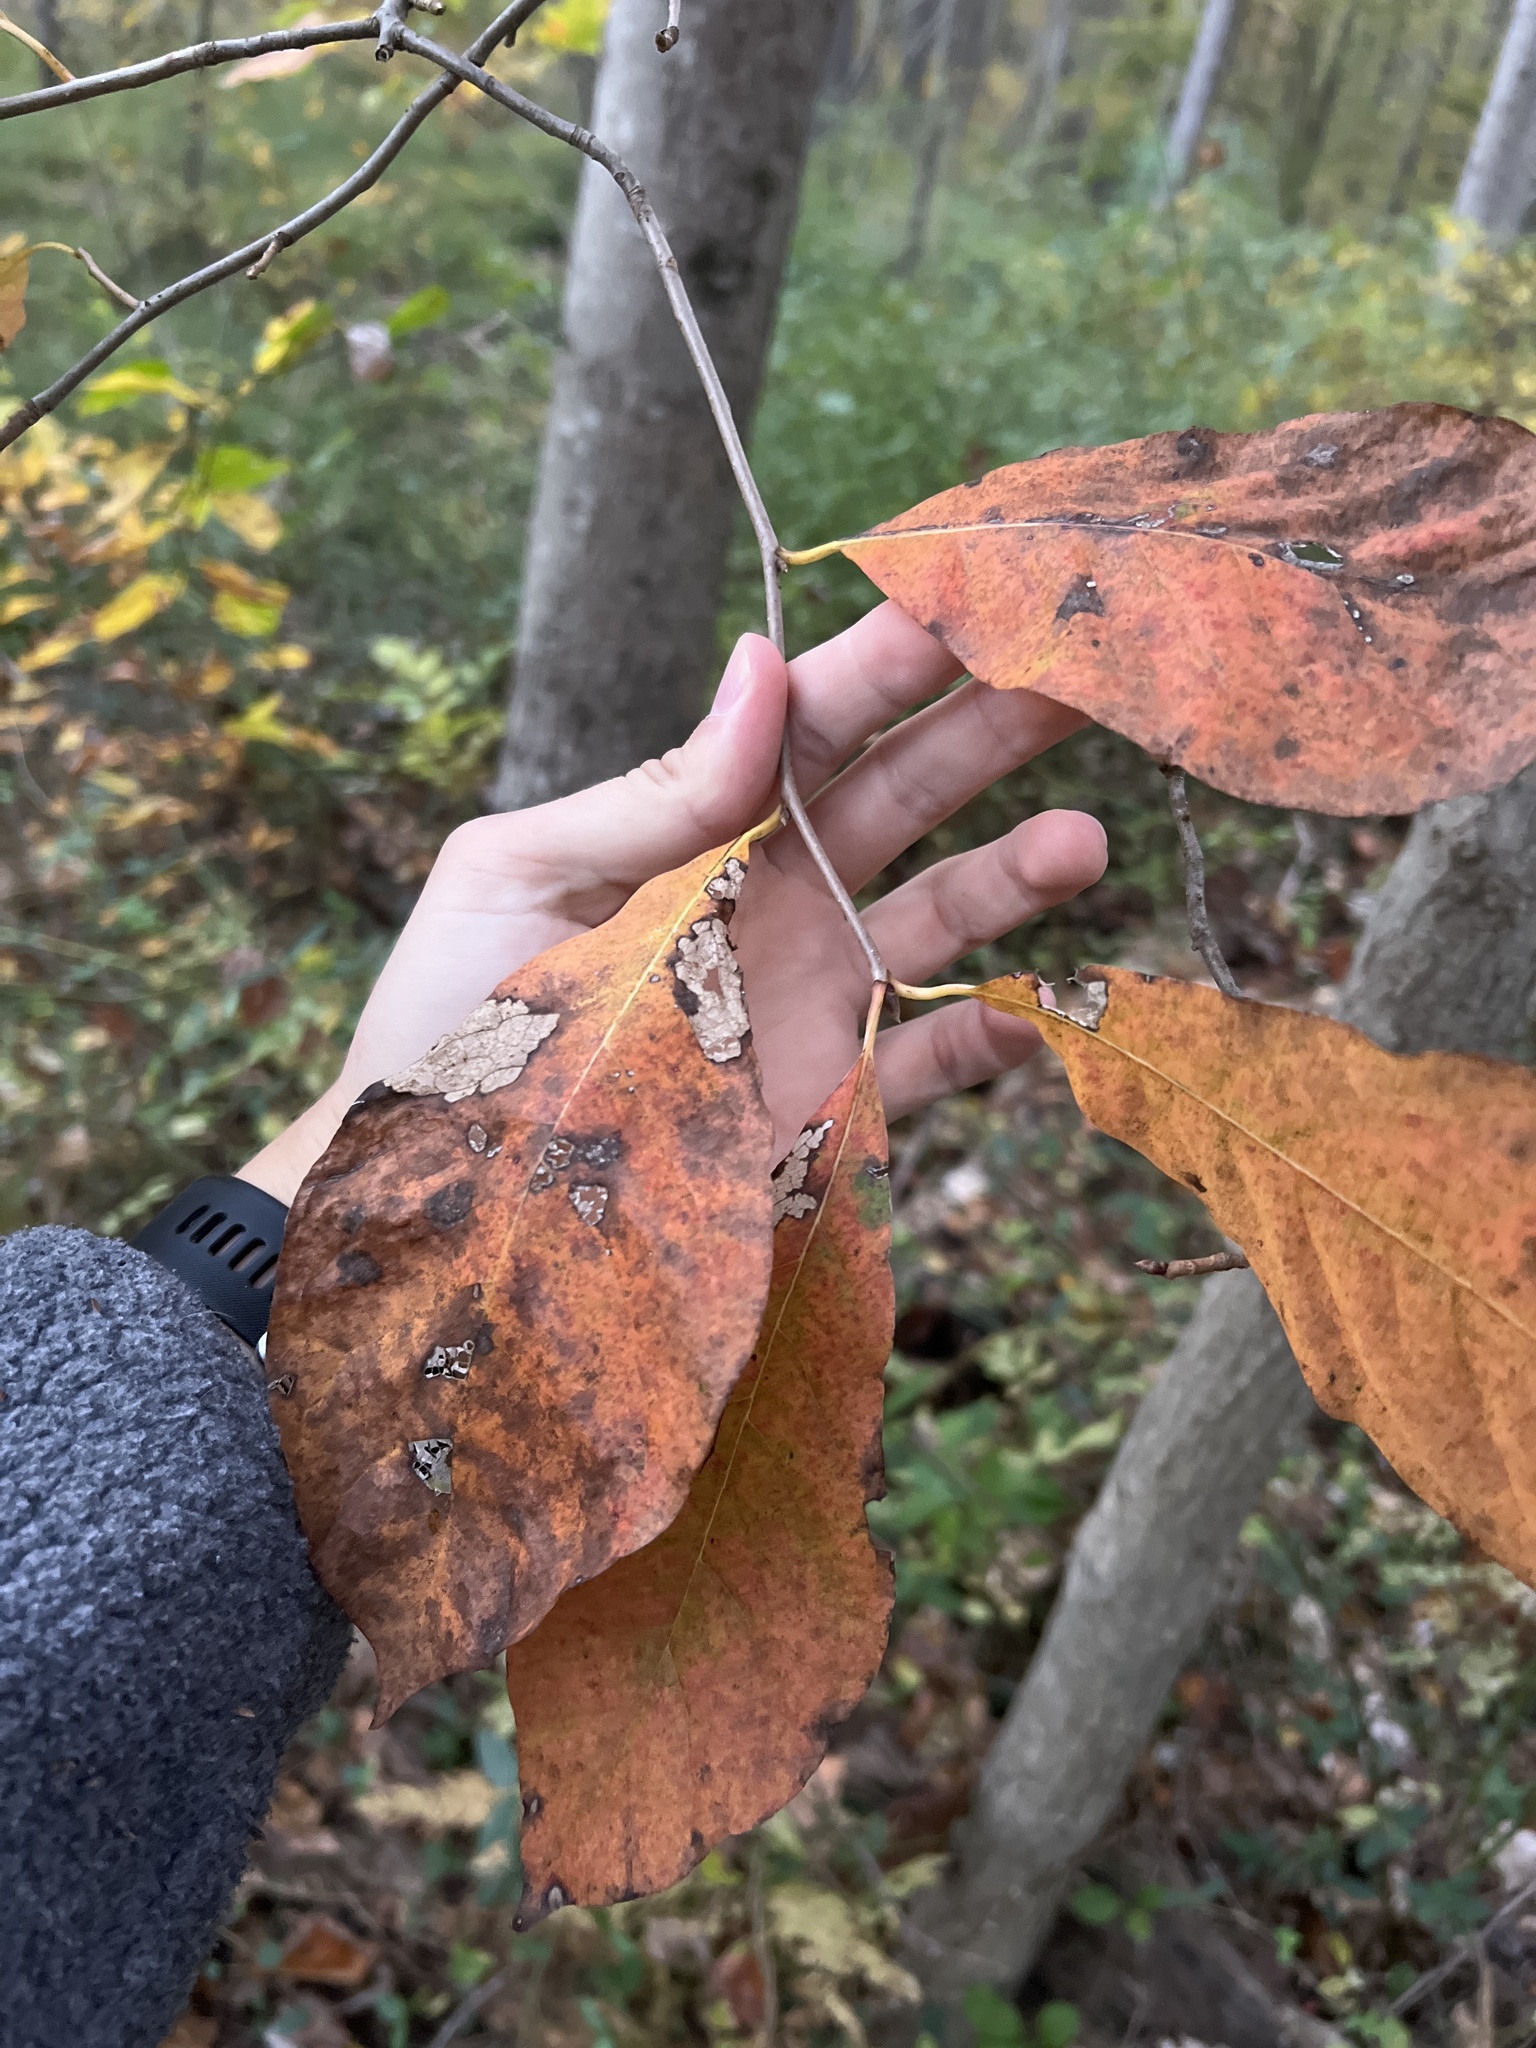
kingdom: Plantae
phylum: Tracheophyta
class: Magnoliopsida
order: Cornales
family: Nyssaceae
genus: Nyssa
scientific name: Nyssa sylvatica
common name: Black tupelo
